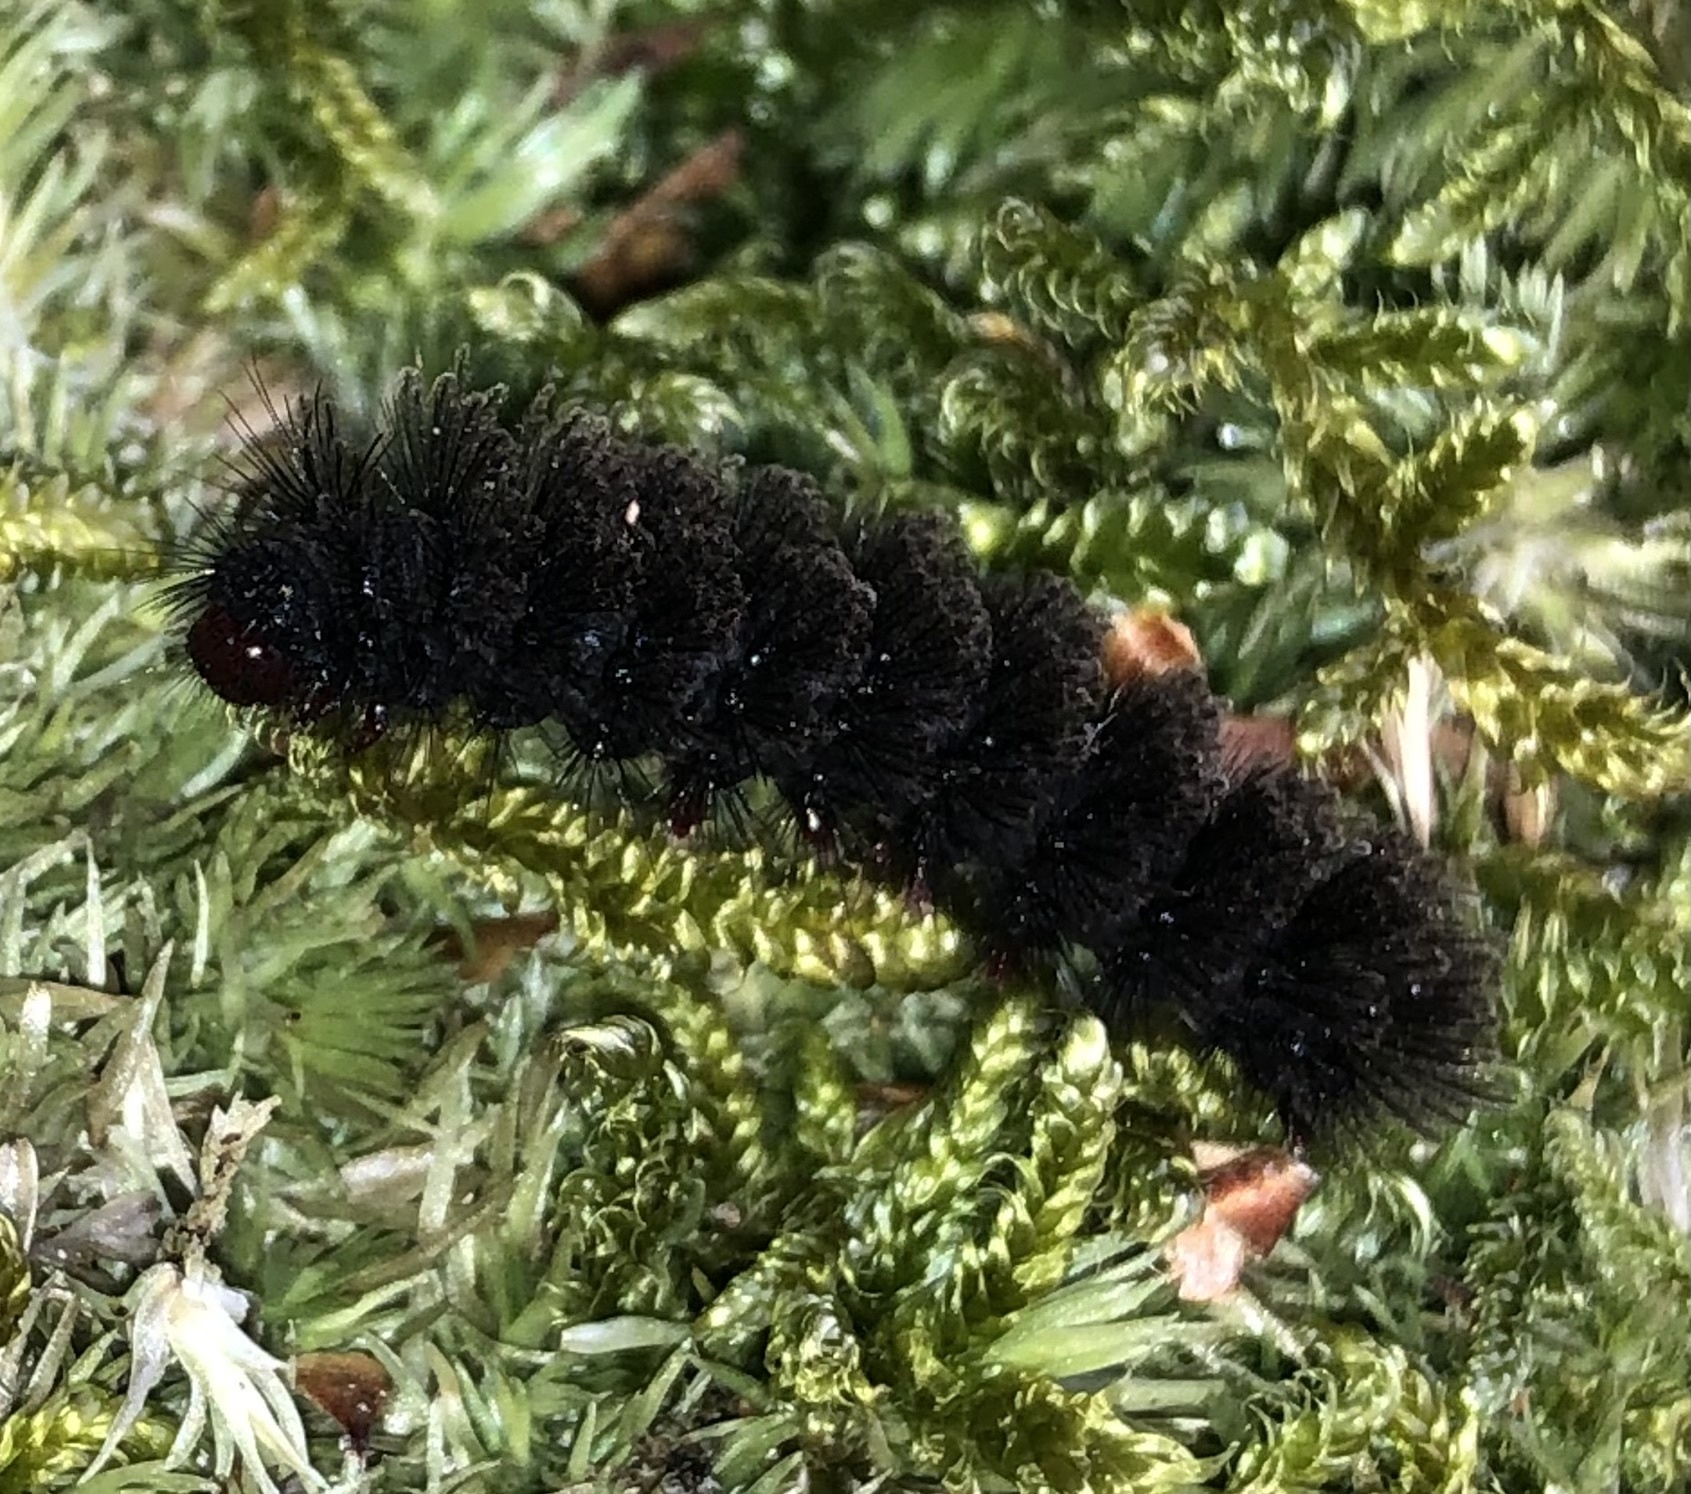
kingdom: Animalia
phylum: Arthropoda
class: Insecta
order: Lepidoptera
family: Erebidae
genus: Amata
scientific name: Amata phegea
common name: Nine-spotted
